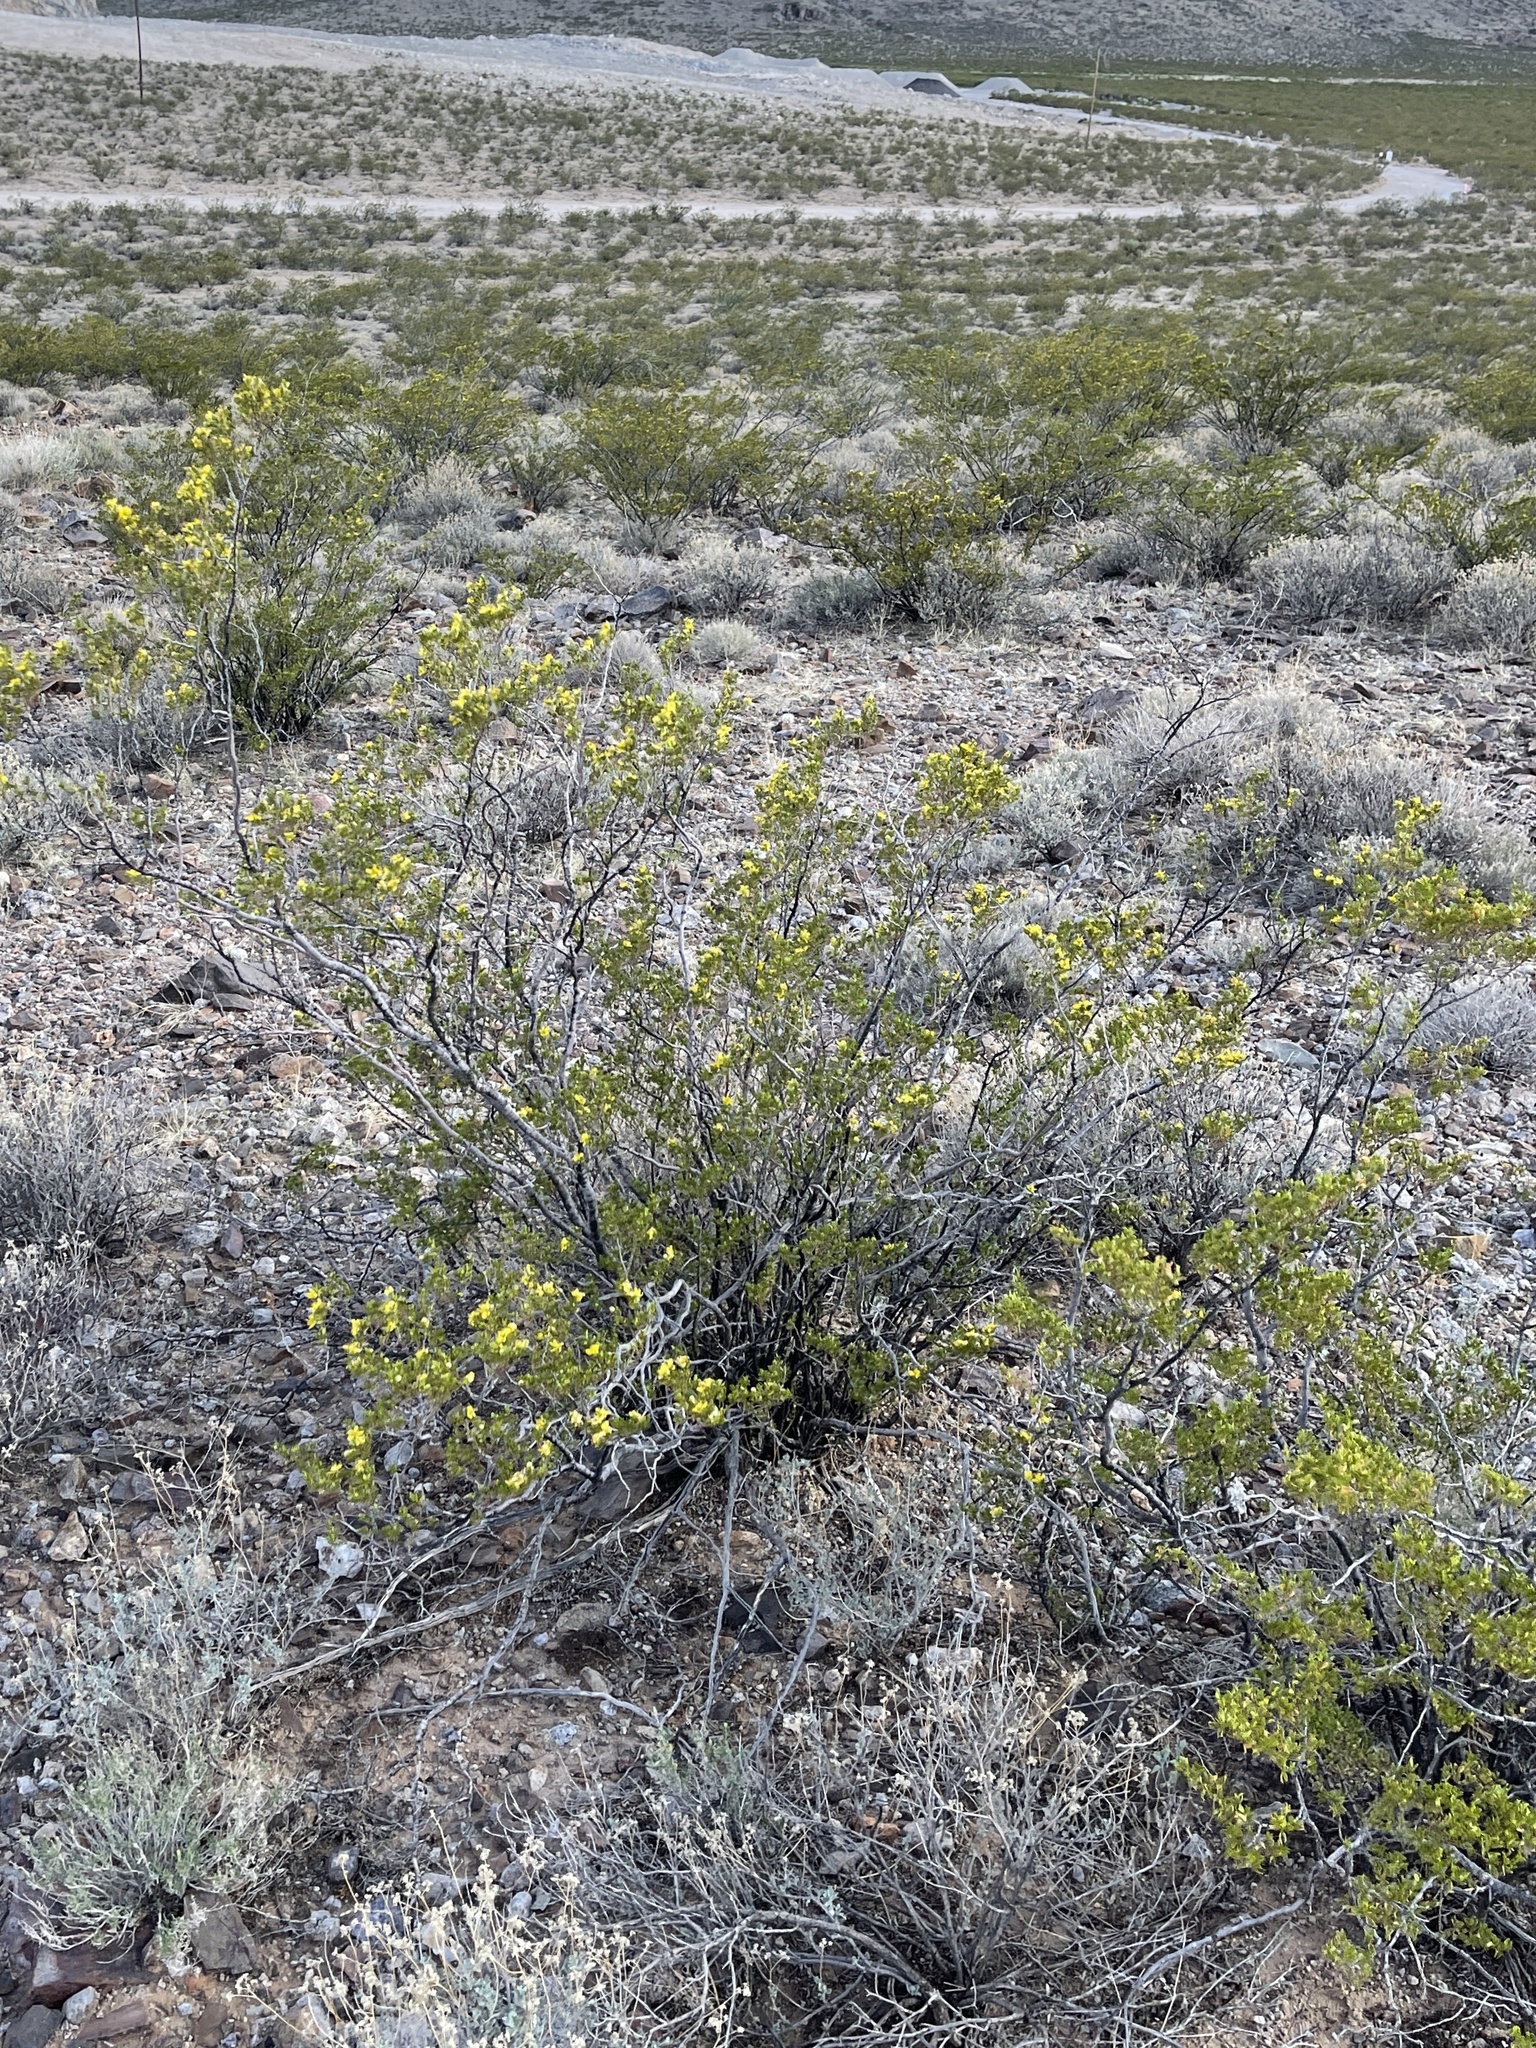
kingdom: Plantae
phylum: Tracheophyta
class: Magnoliopsida
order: Zygophyllales
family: Zygophyllaceae
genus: Larrea
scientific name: Larrea tridentata
